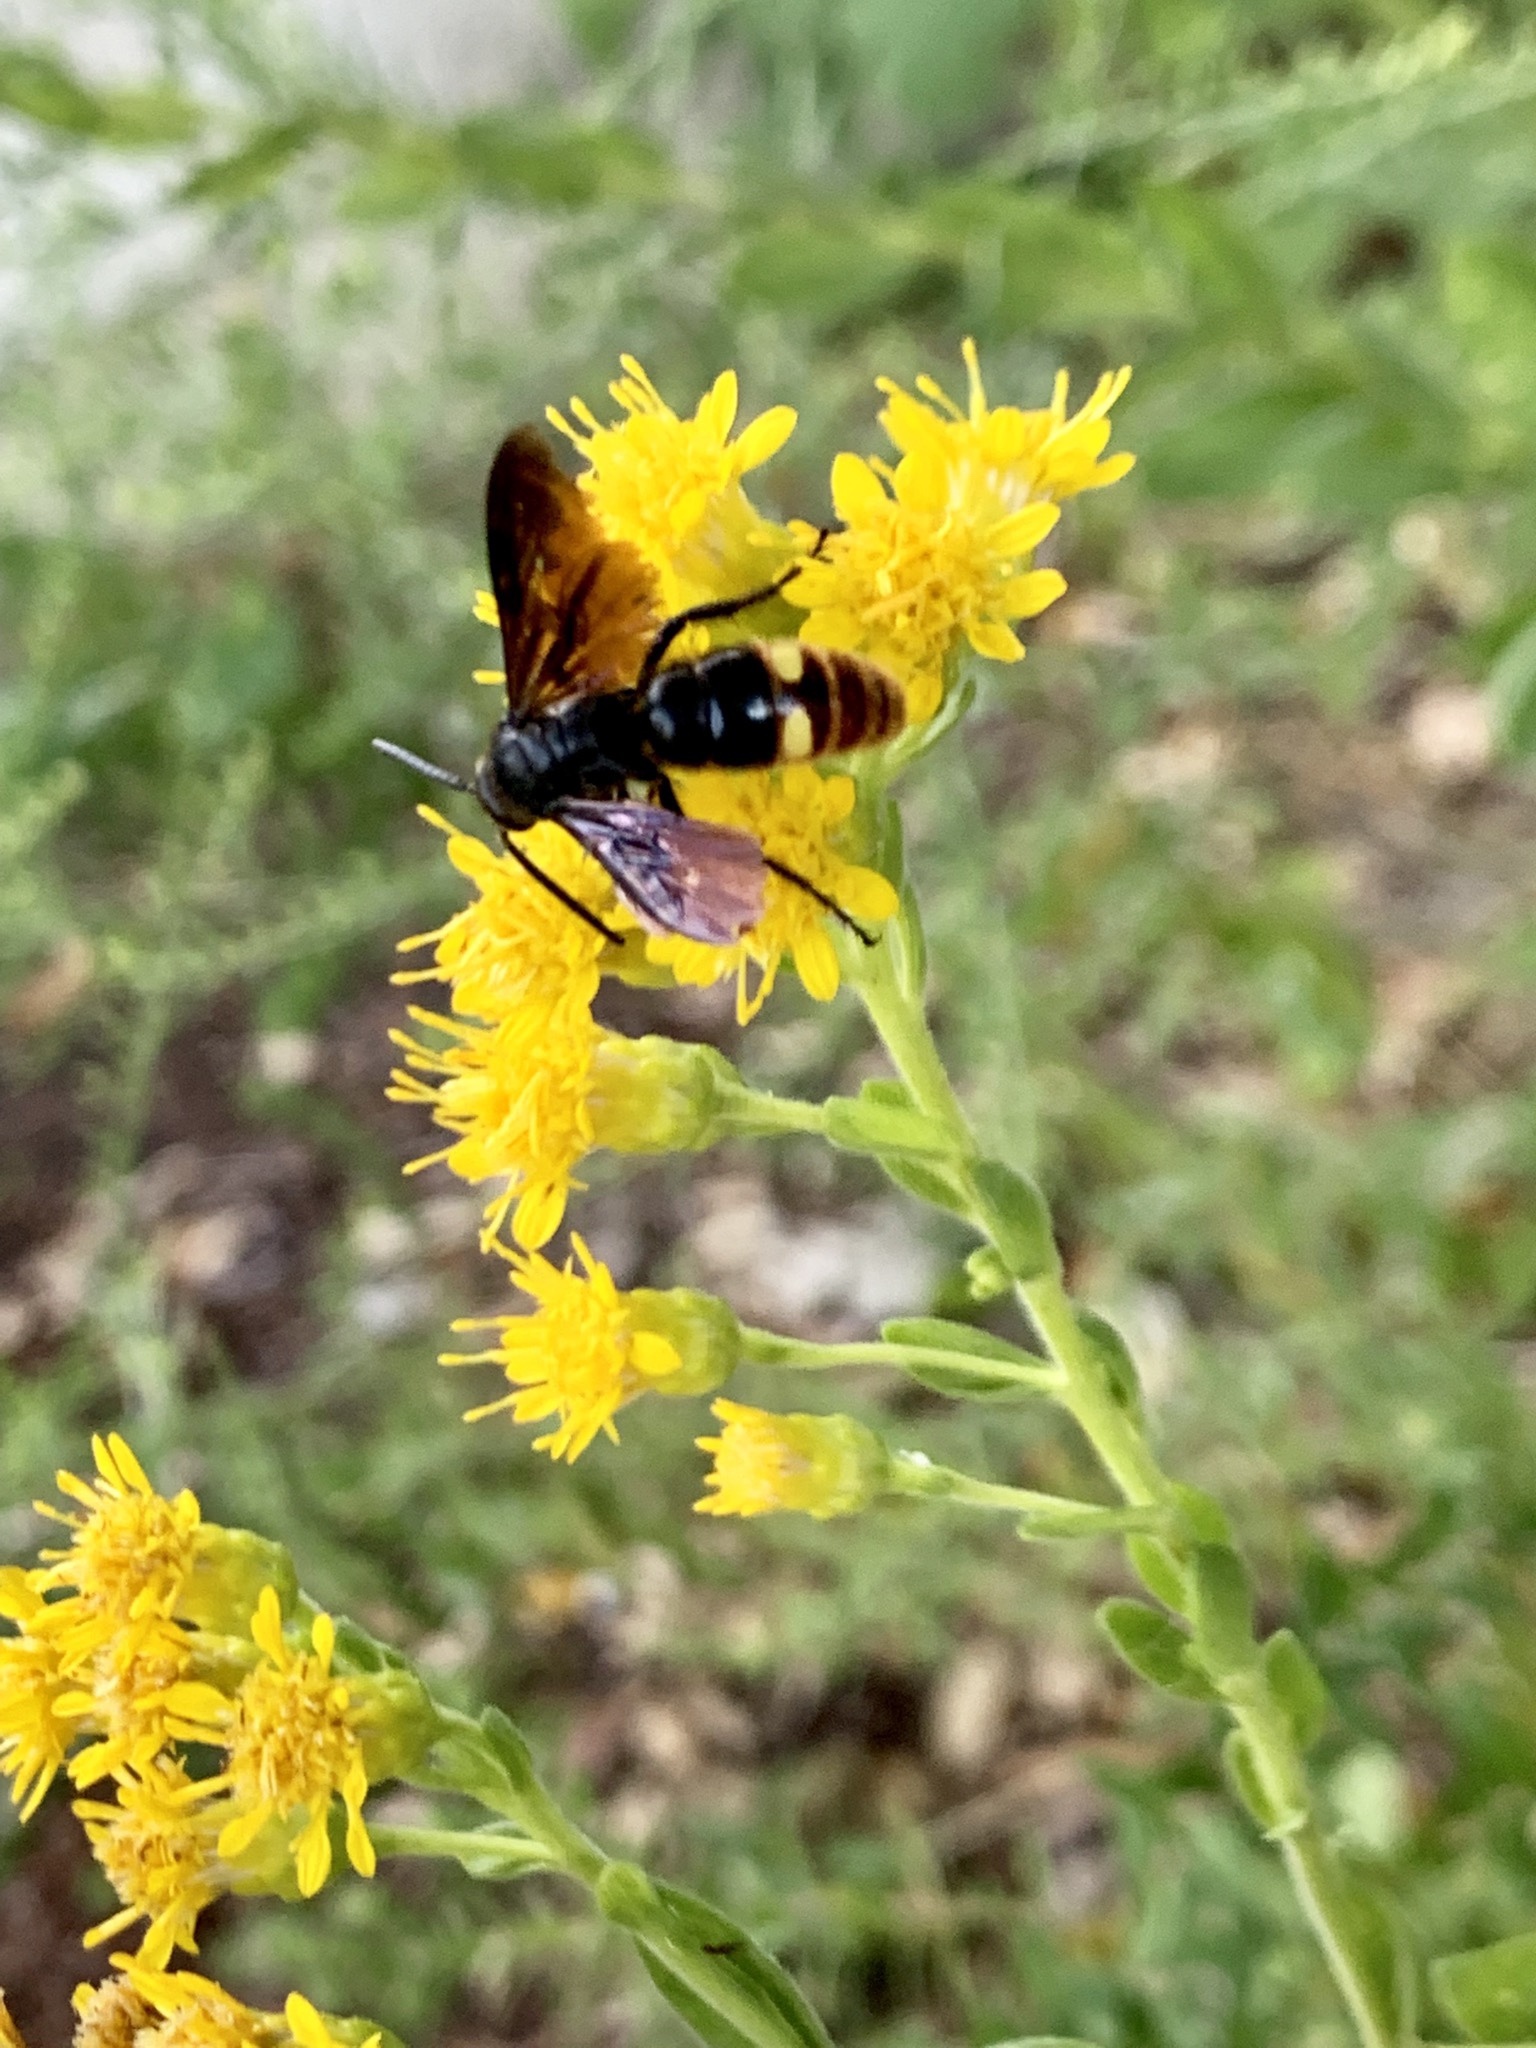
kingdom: Animalia
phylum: Arthropoda
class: Insecta
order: Hymenoptera
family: Scoliidae
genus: Scolia
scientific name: Scolia dubia
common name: Blue-winged scoliid wasp
